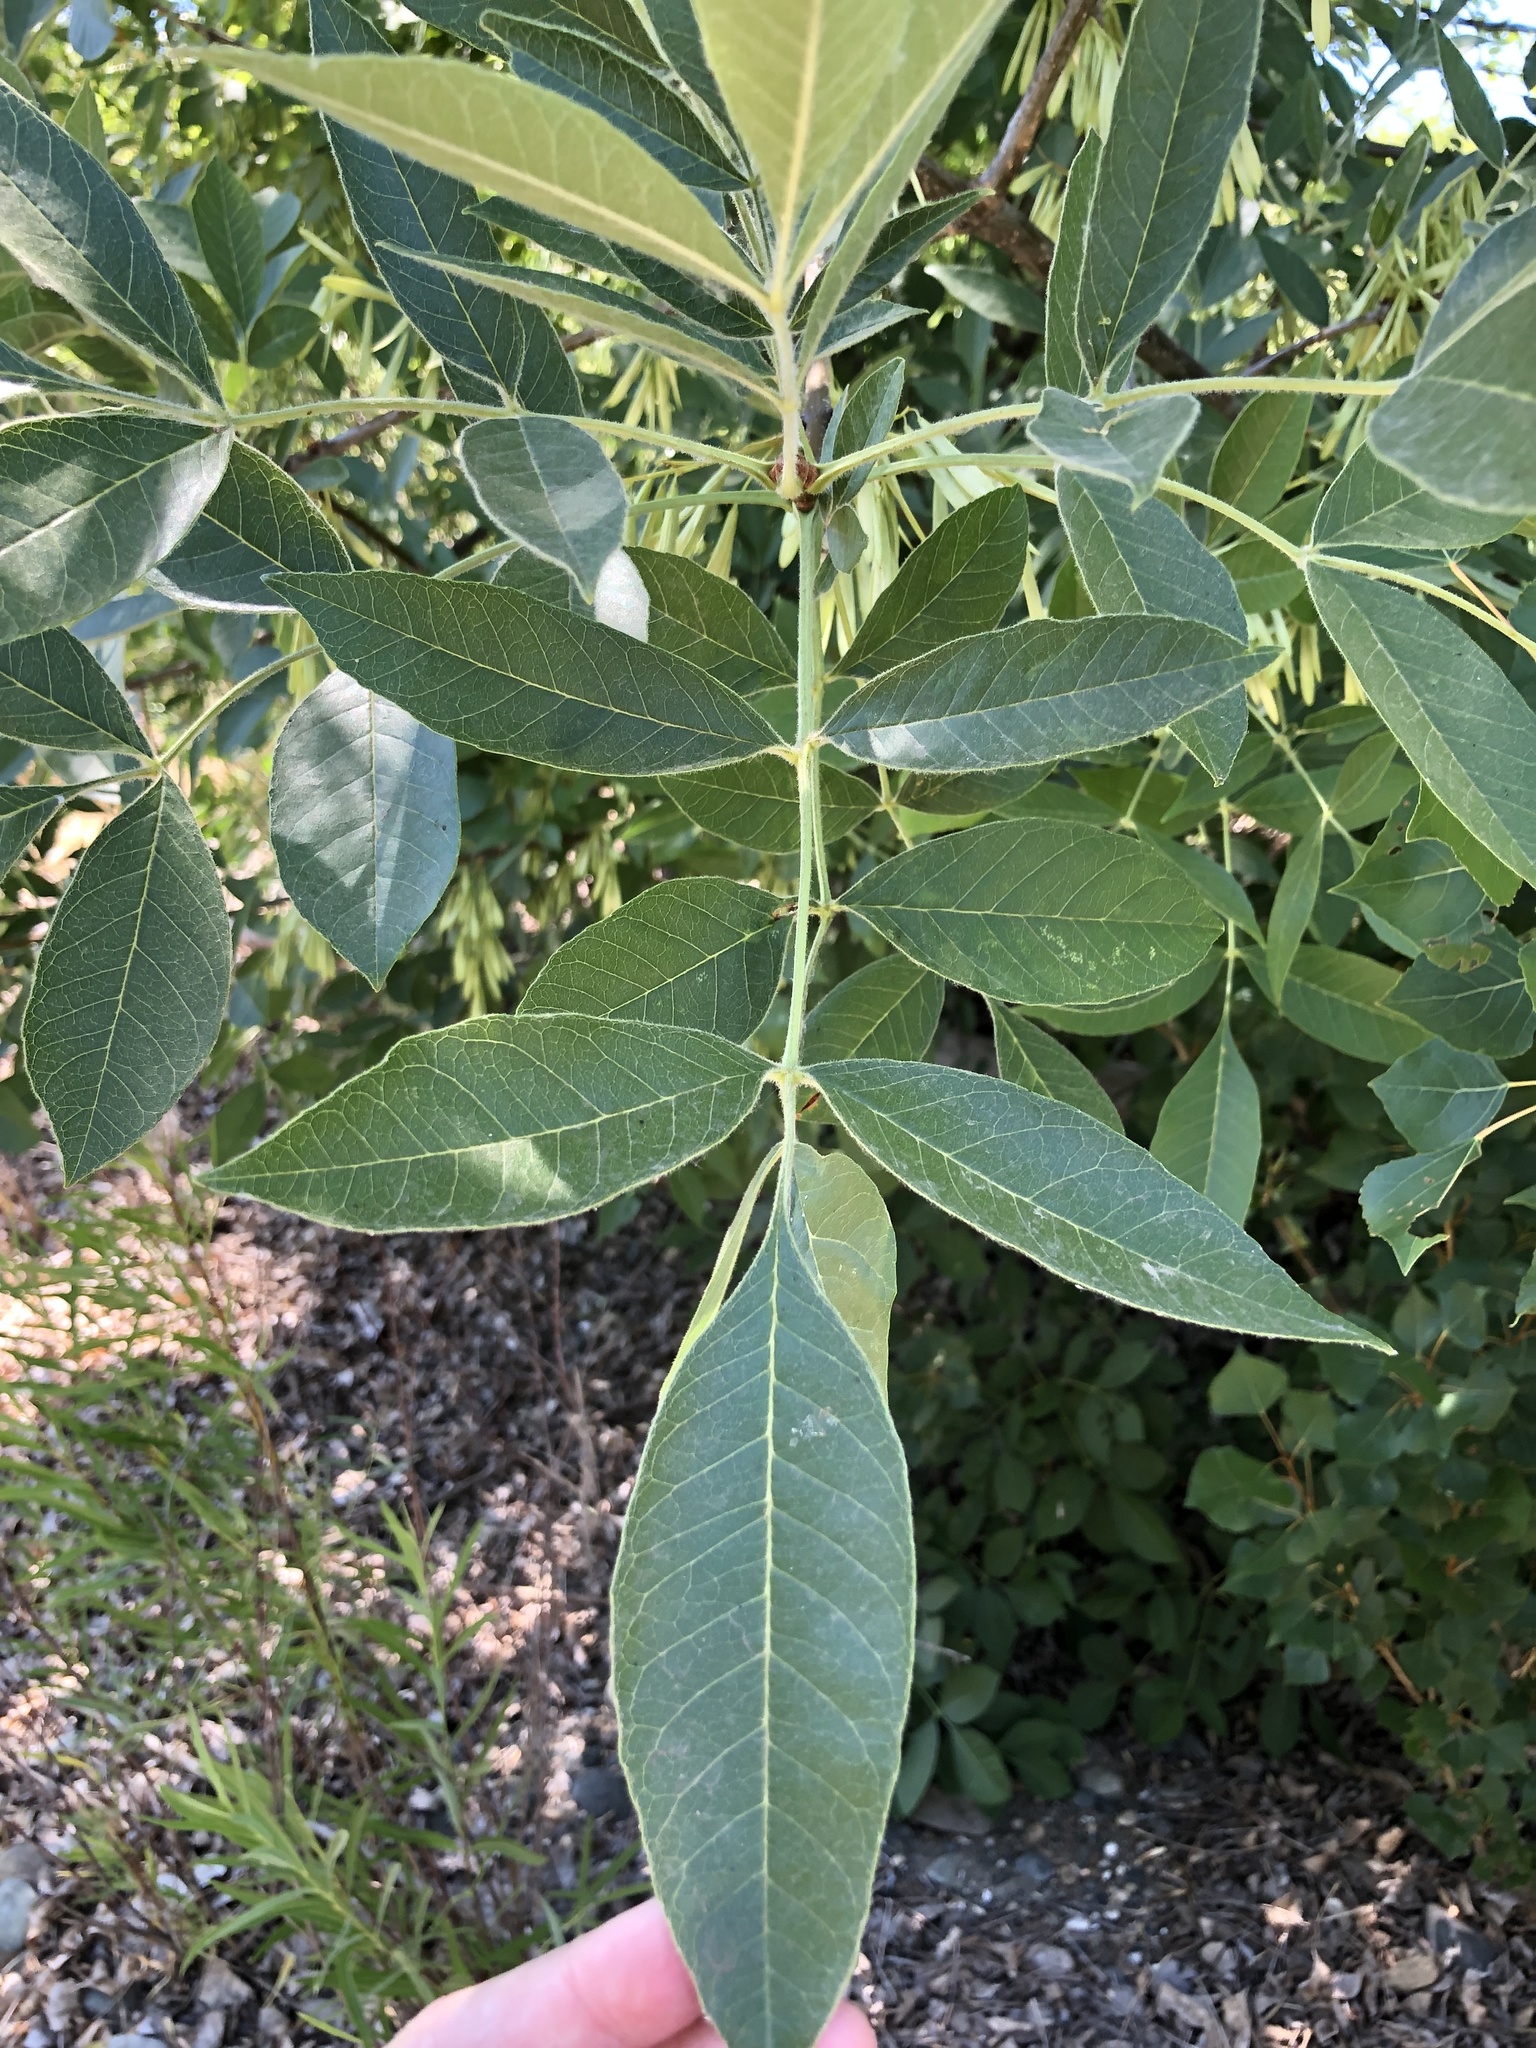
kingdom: Plantae
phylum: Tracheophyta
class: Magnoliopsida
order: Lamiales
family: Oleaceae
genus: Fraxinus
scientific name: Fraxinus latifolia
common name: Oregon ash
